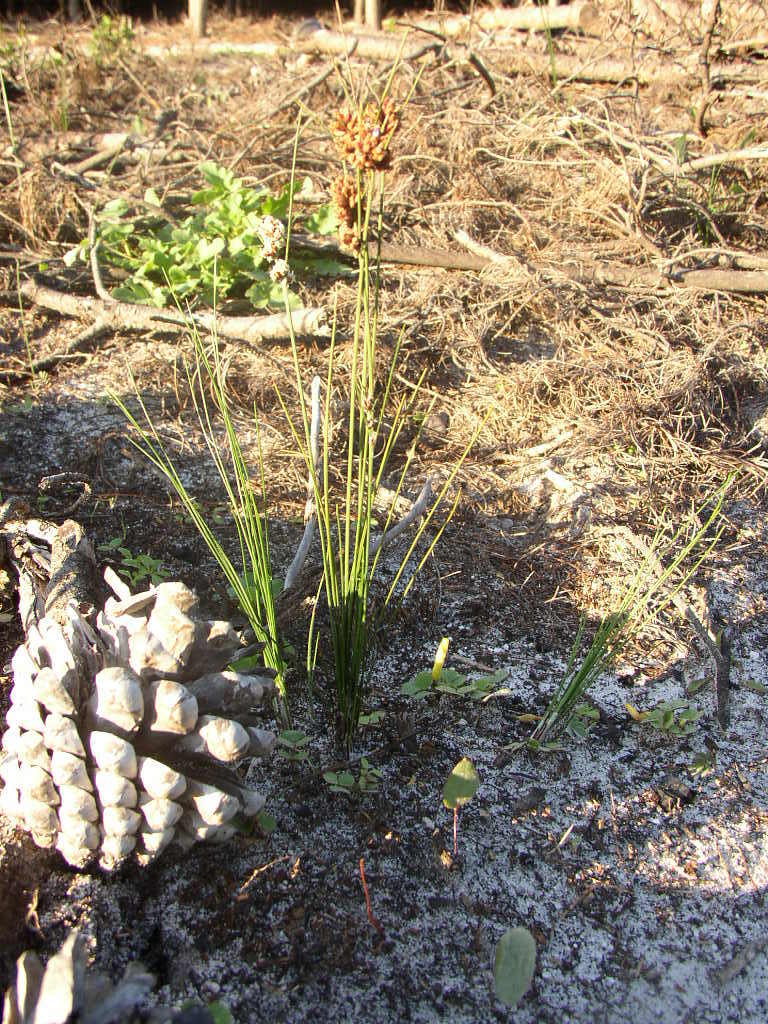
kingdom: Plantae
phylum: Tracheophyta
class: Liliopsida
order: Poales
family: Cyperaceae
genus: Ficinia
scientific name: Ficinia bulbosa
